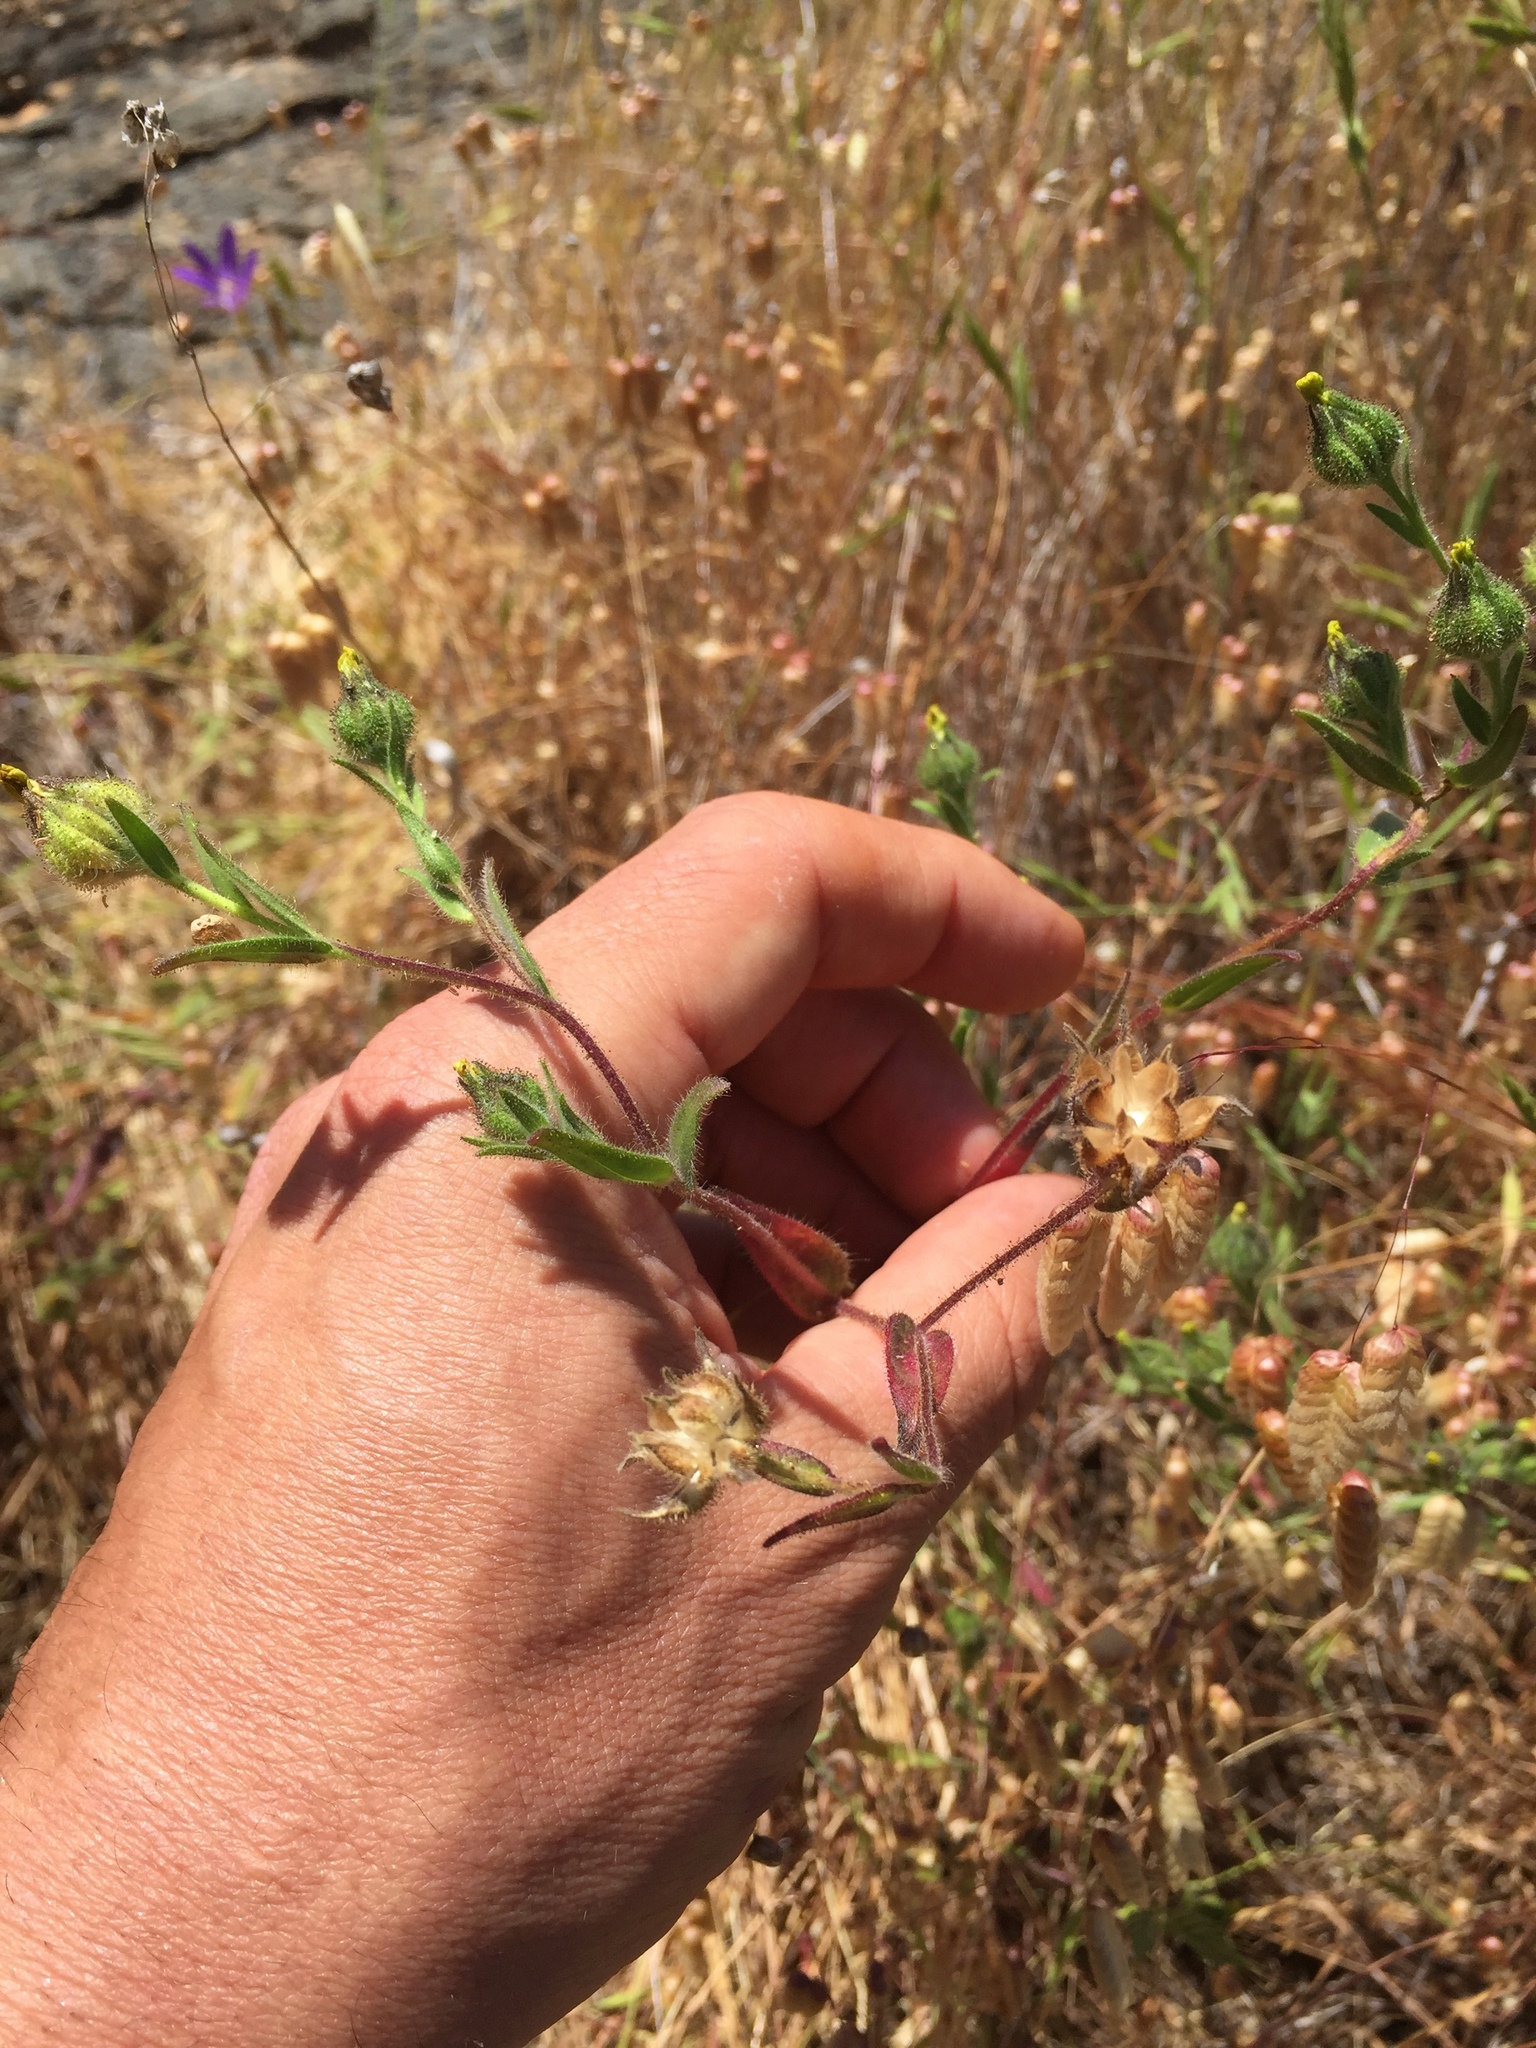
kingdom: Plantae
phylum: Tracheophyta
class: Magnoliopsida
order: Asterales
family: Asteraceae
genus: Madia
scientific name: Madia gracilis
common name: Grassy tarweed
